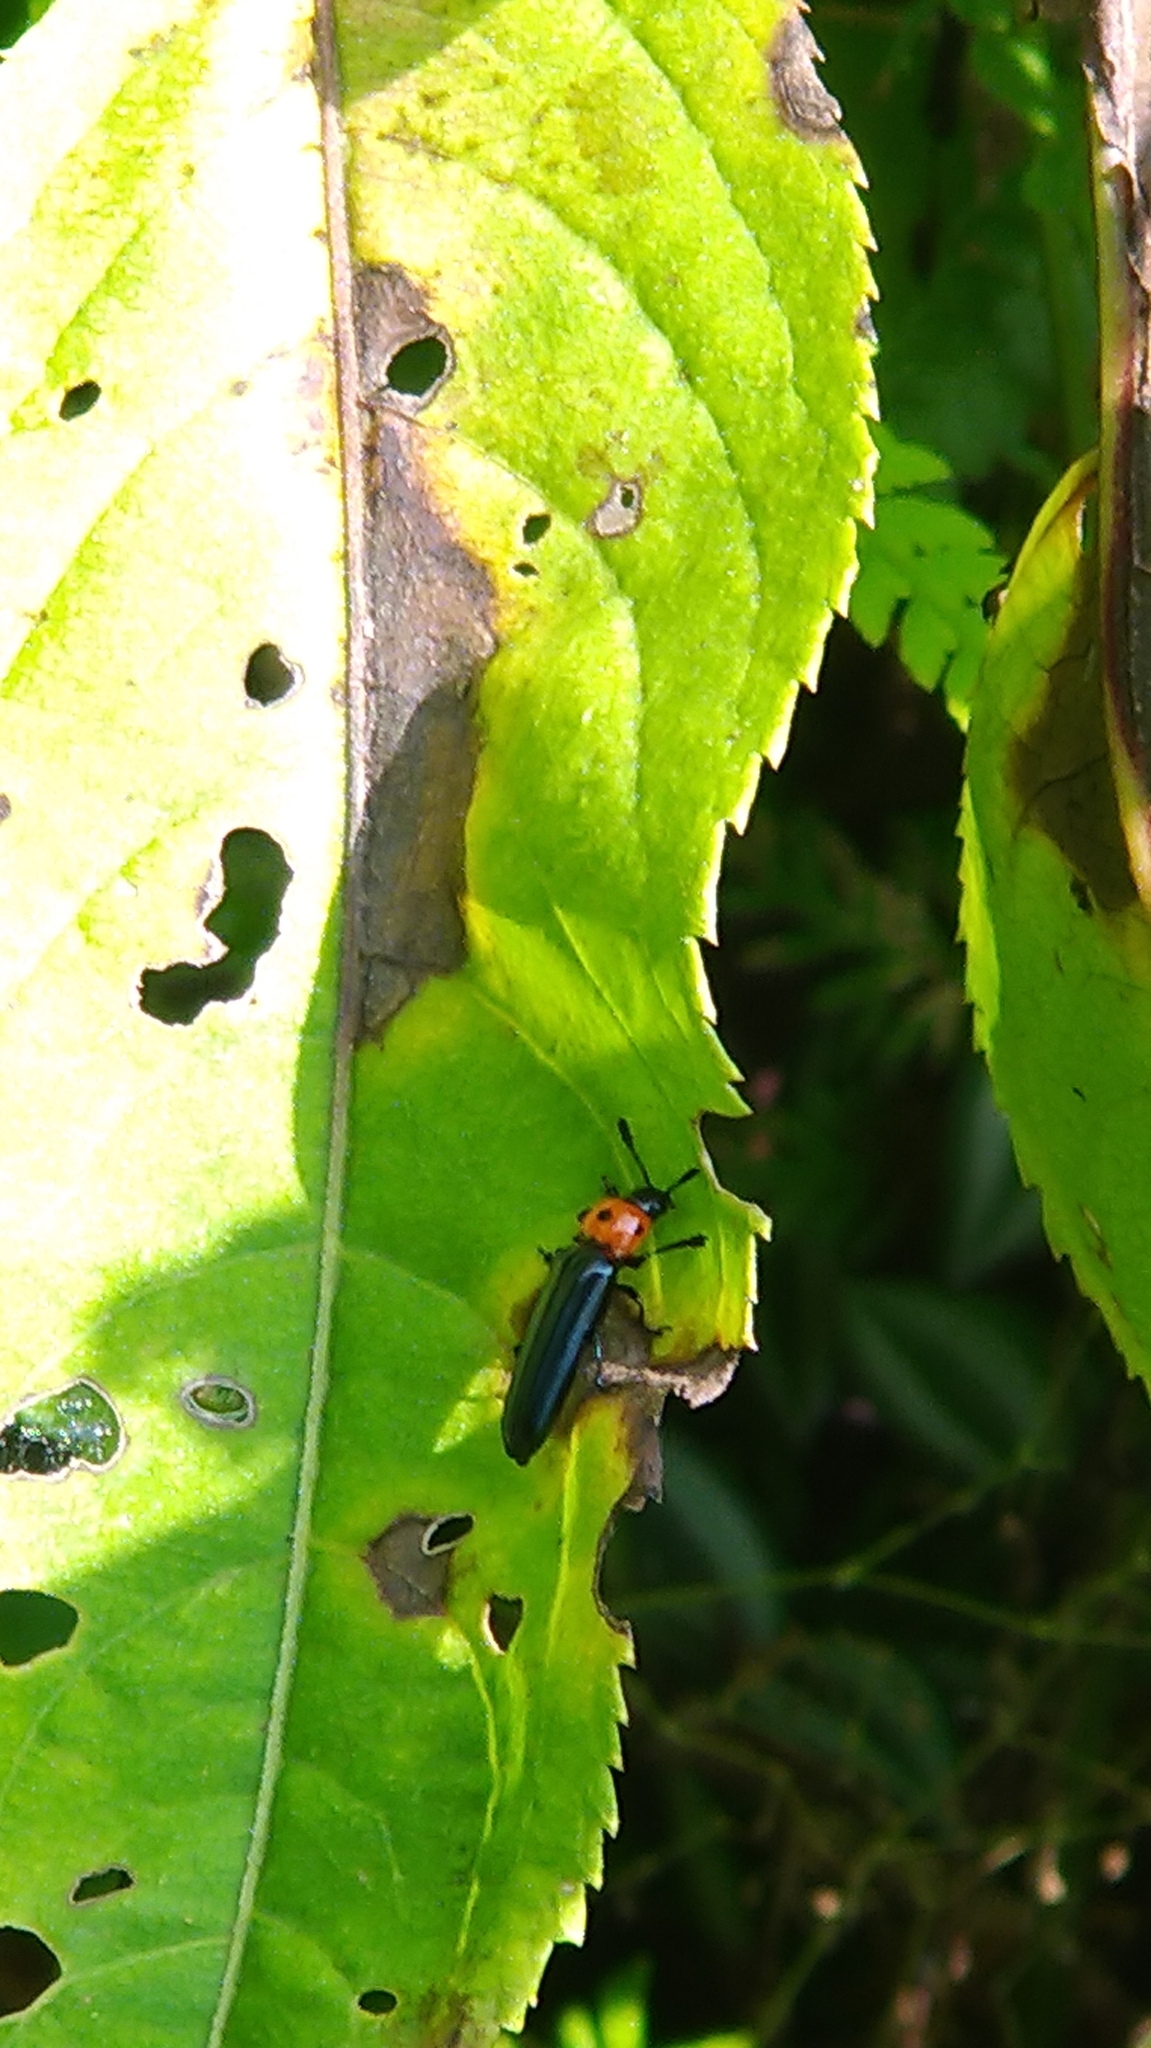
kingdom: Animalia
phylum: Arthropoda
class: Insecta
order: Coleoptera
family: Erotylidae
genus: Tetraphala
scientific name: Tetraphala collaris
